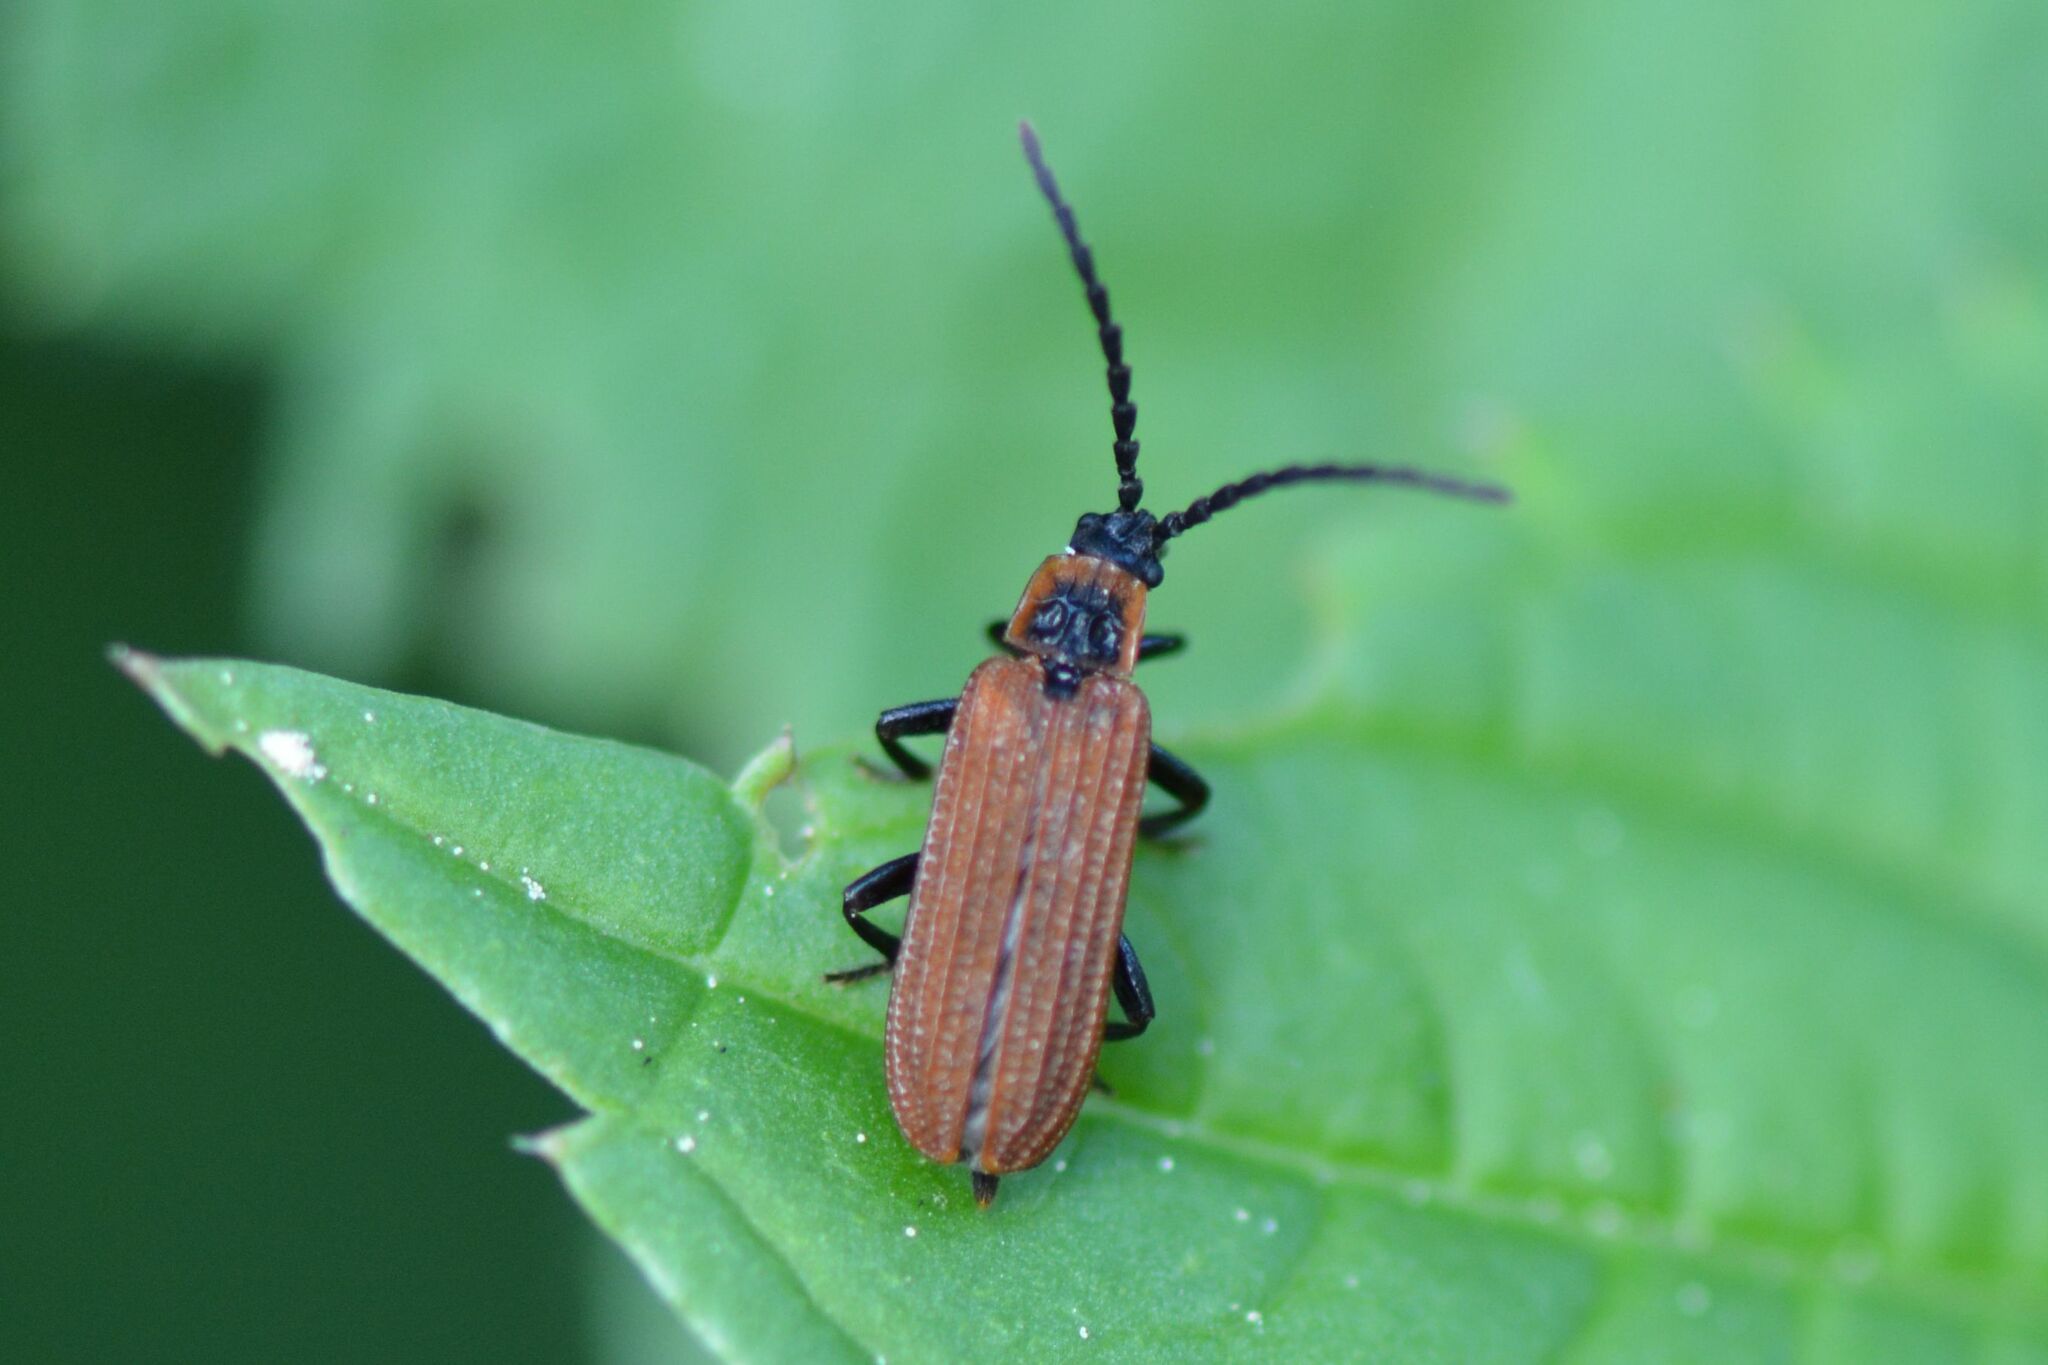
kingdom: Animalia
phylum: Arthropoda
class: Insecta
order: Coleoptera
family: Lycidae
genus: Erotides
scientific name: Erotides cosnardi
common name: Cosnard's net-winged beetle
